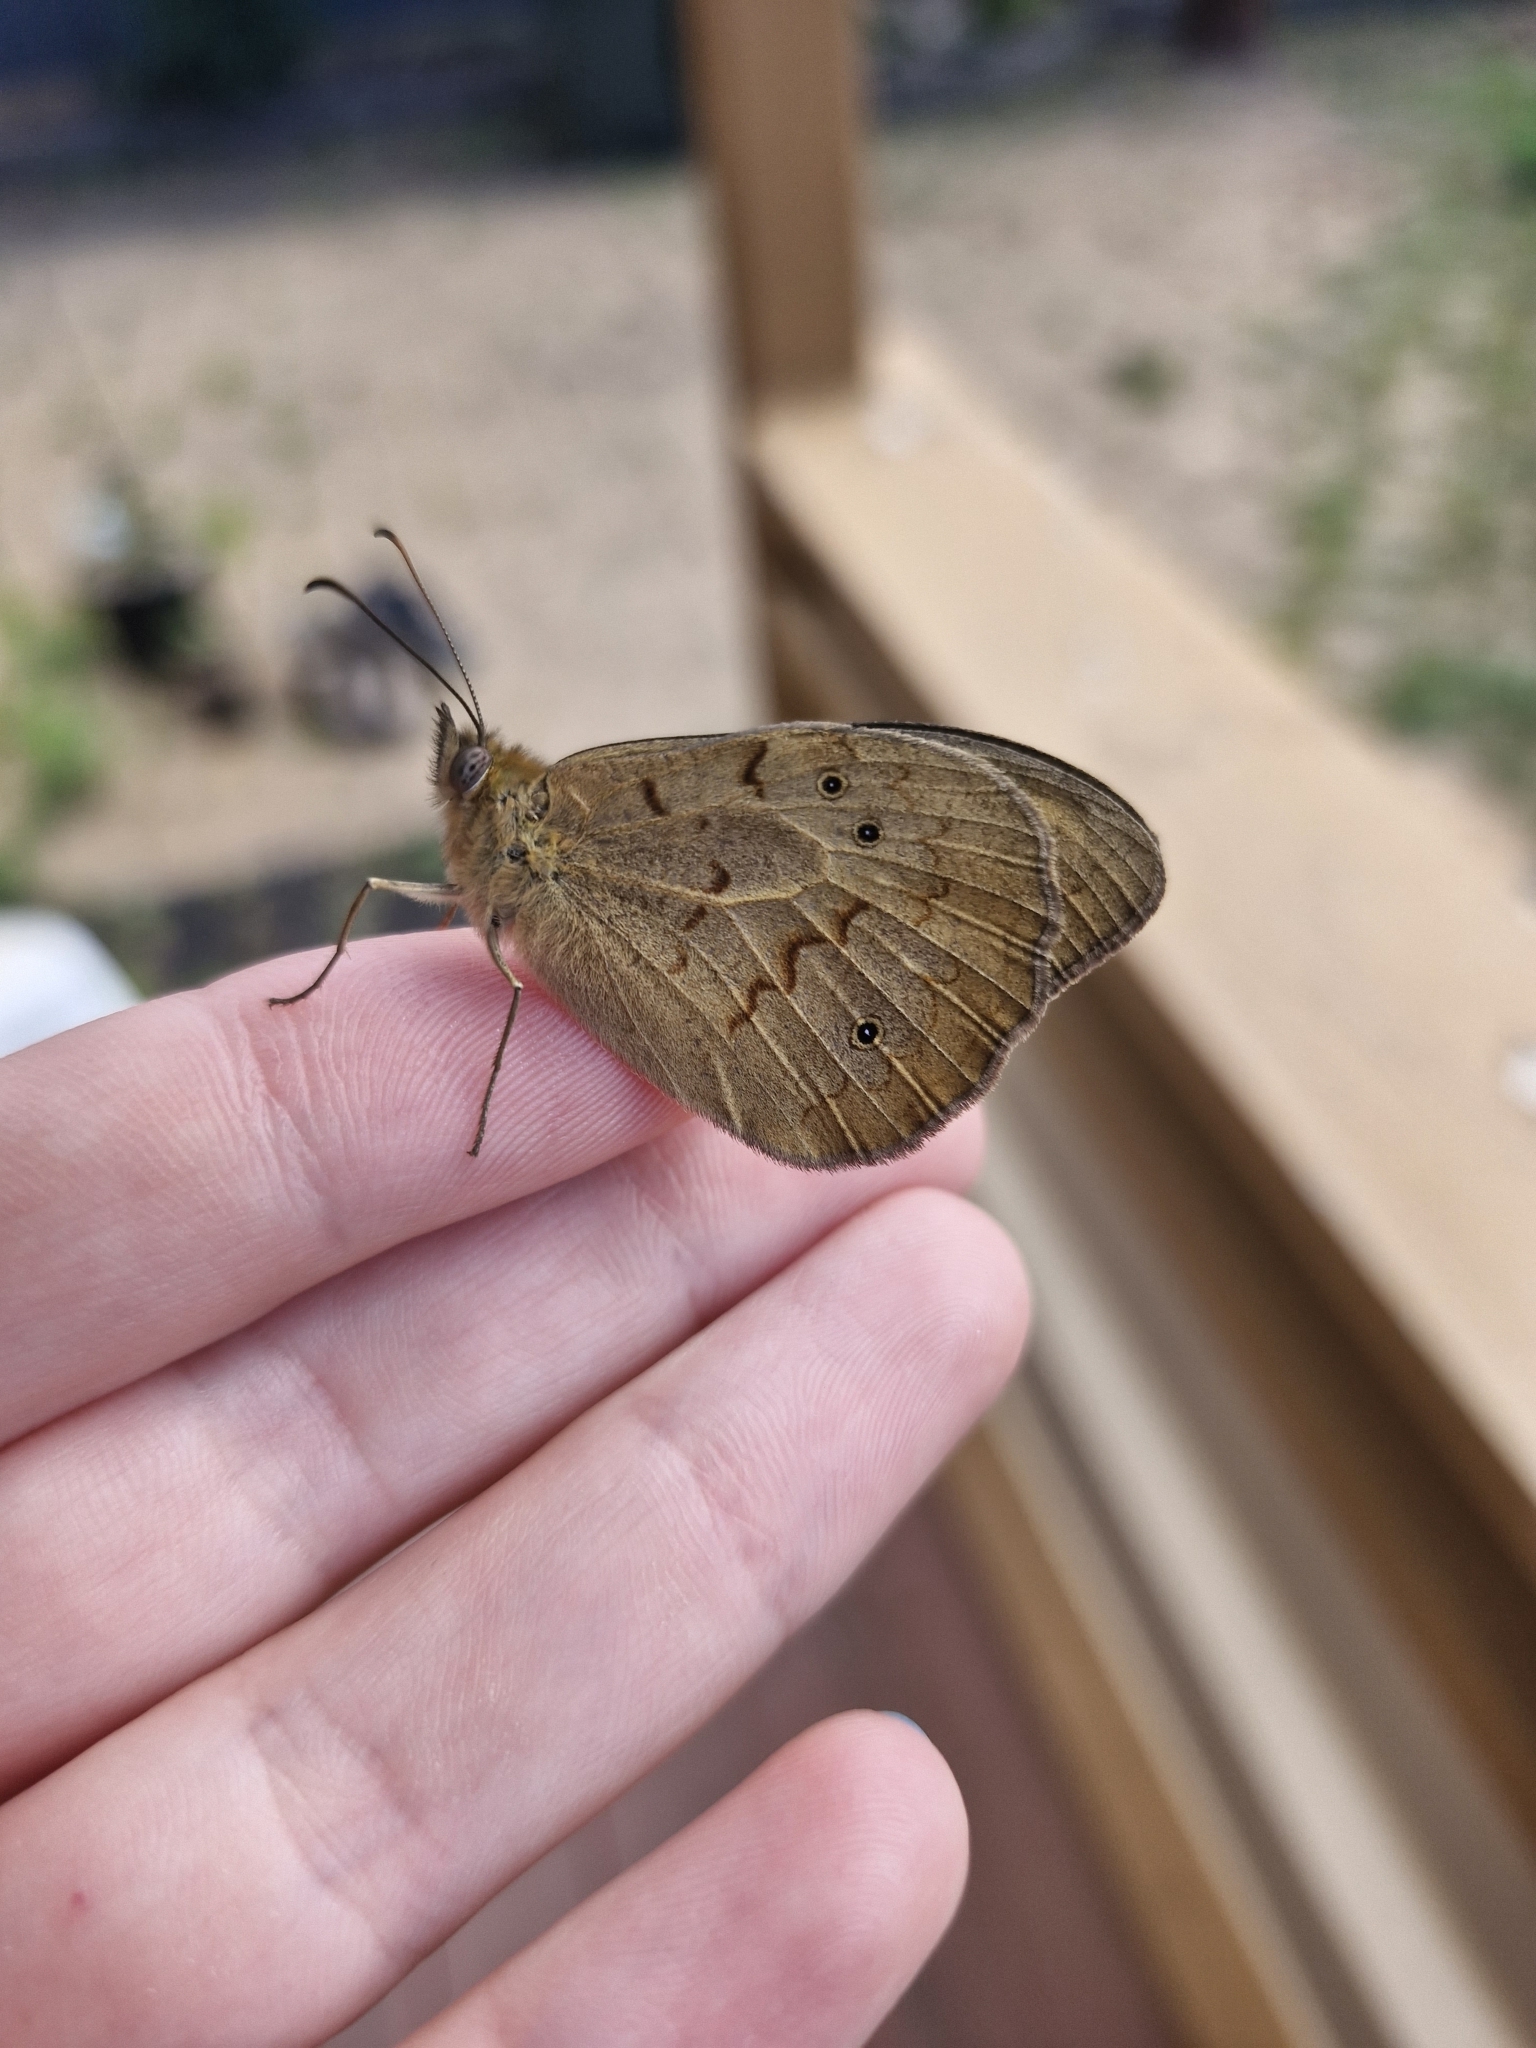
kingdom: Animalia
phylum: Arthropoda
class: Insecta
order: Lepidoptera
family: Nymphalidae
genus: Heteronympha
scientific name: Heteronympha merope
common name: Common brown
